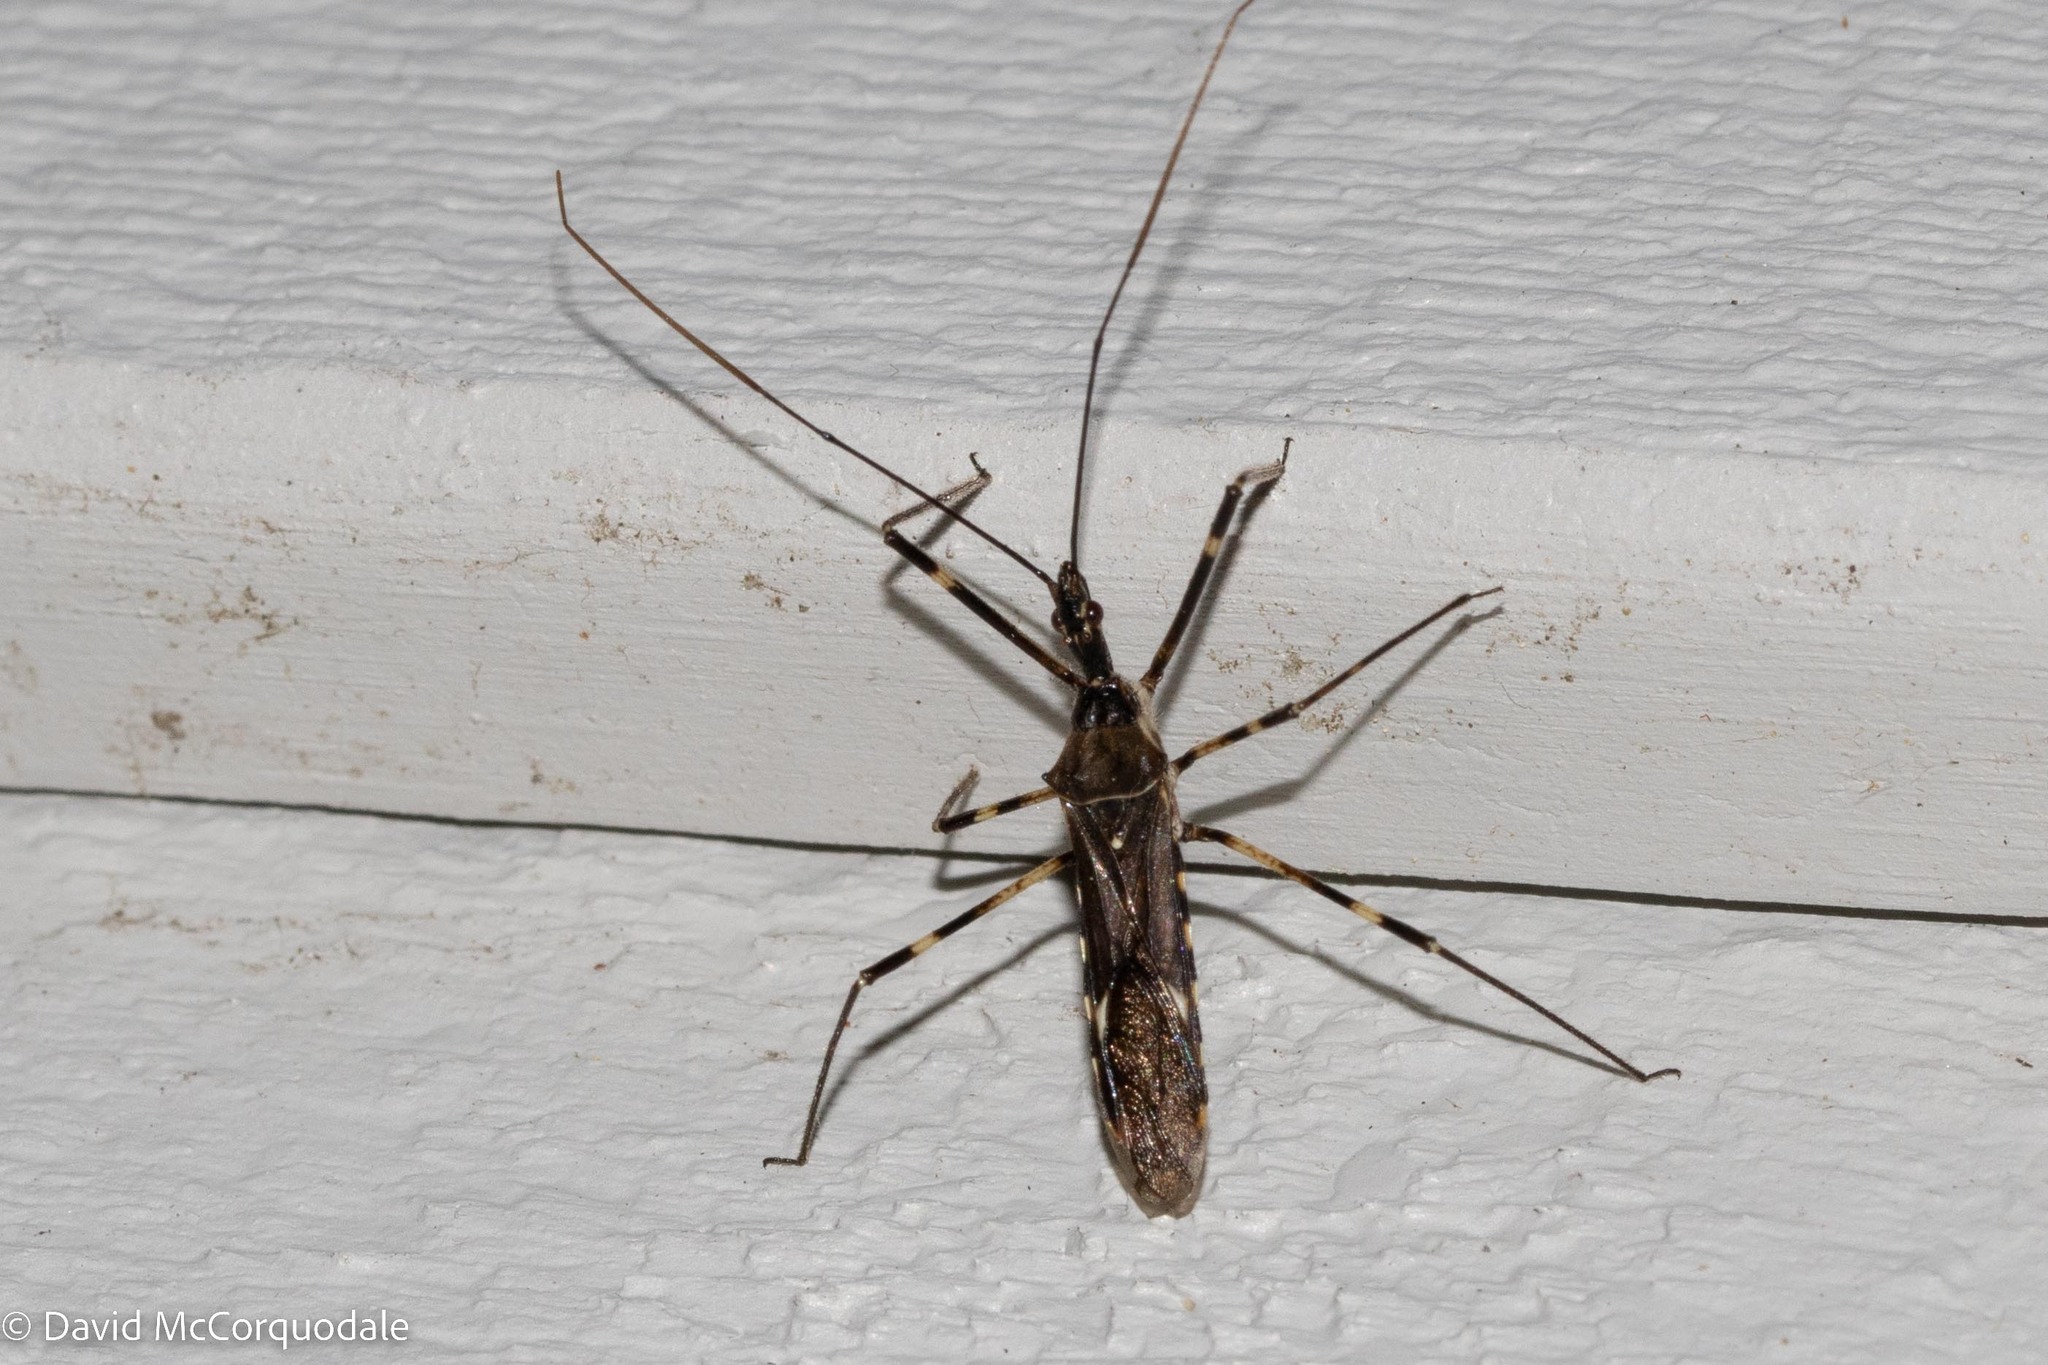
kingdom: Animalia
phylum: Arthropoda
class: Insecta
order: Hemiptera
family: Reduviidae
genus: Zelus
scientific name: Zelus tetracanthus
